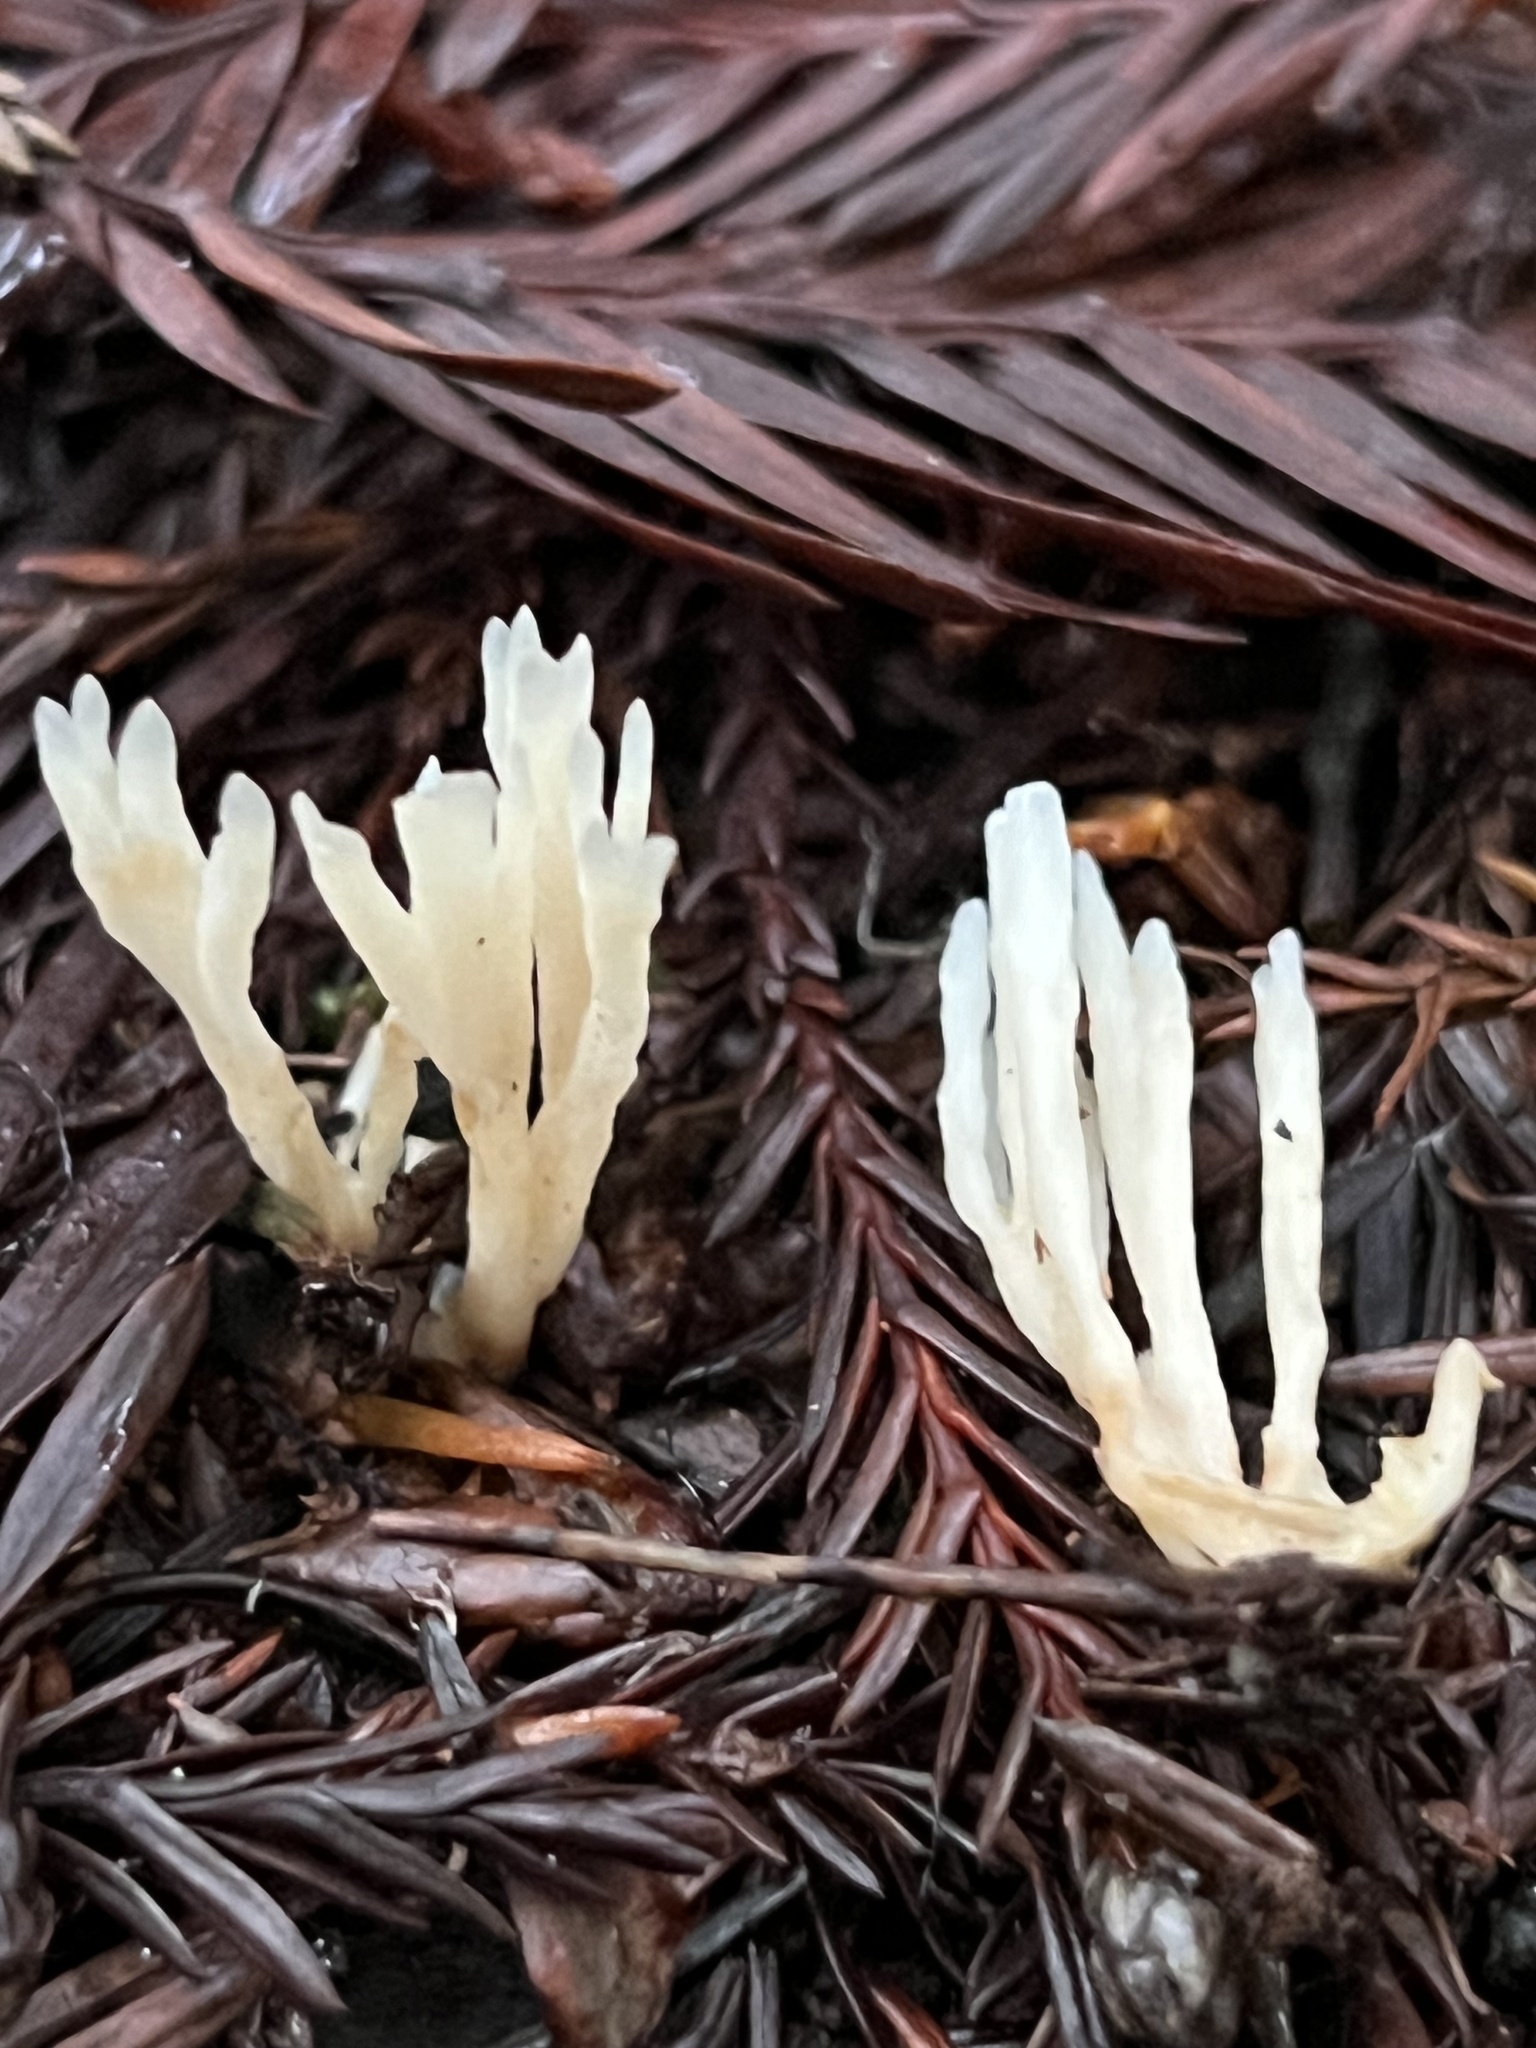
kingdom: Fungi
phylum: Basidiomycota
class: Agaricomycetes
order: Tremellodendropsidales
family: Tremellodendropsidaceae
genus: Tremellodendropsis
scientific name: Tremellodendropsis tuberosa
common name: Ashen coral
